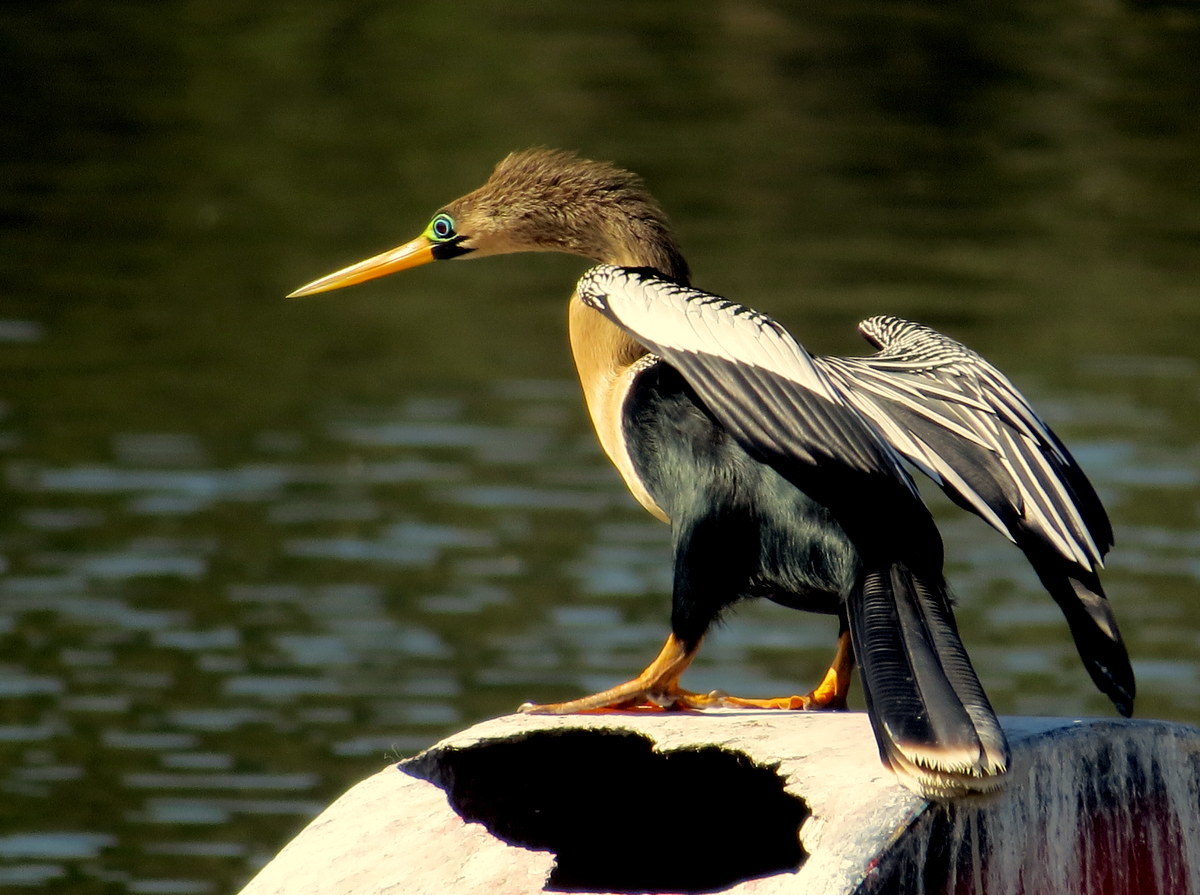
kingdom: Animalia
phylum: Chordata
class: Aves
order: Suliformes
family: Anhingidae
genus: Anhinga
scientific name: Anhinga anhinga
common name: Anhinga
